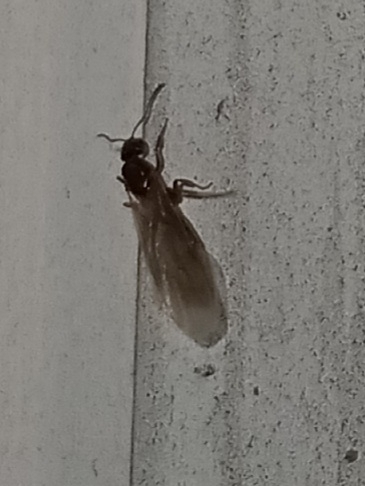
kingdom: Animalia
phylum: Arthropoda
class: Insecta
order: Hymenoptera
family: Formicidae
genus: Brachymyrmex
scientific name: Brachymyrmex patagonicus
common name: Dark rover ant
